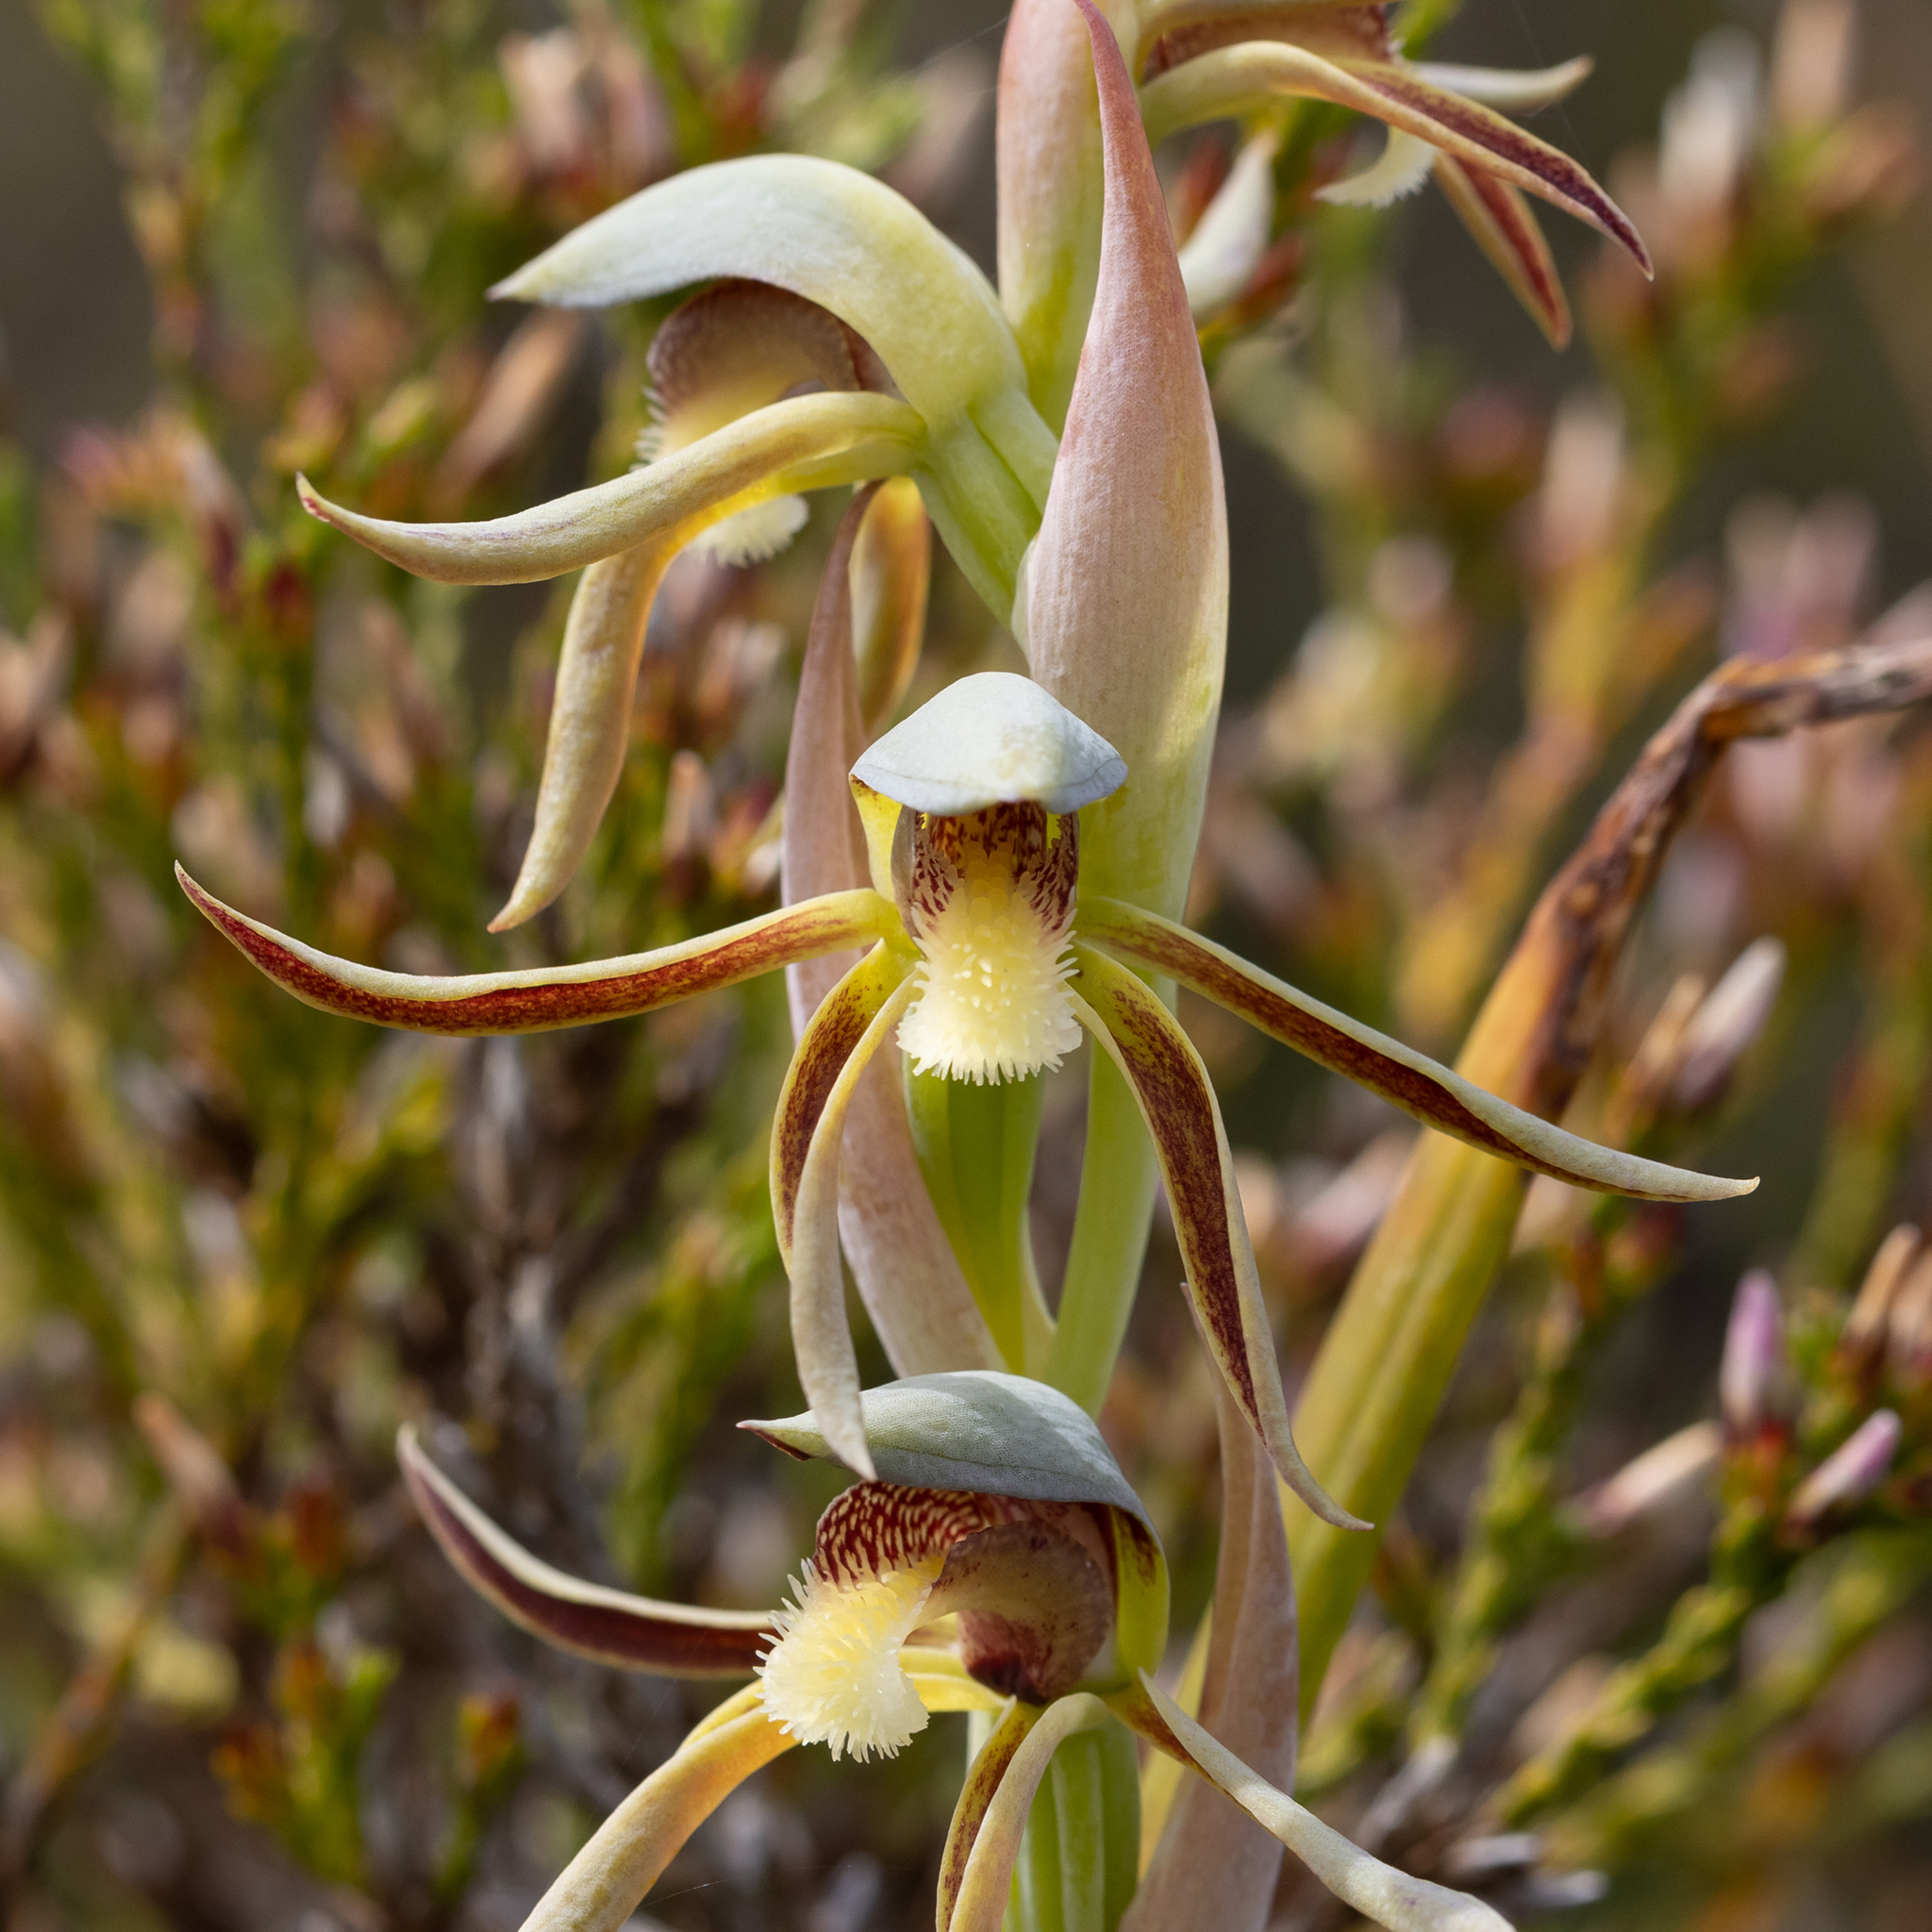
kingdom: Plantae
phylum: Tracheophyta
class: Liliopsida
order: Asparagales
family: Orchidaceae
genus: Lyperanthus
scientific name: Lyperanthus serratus
